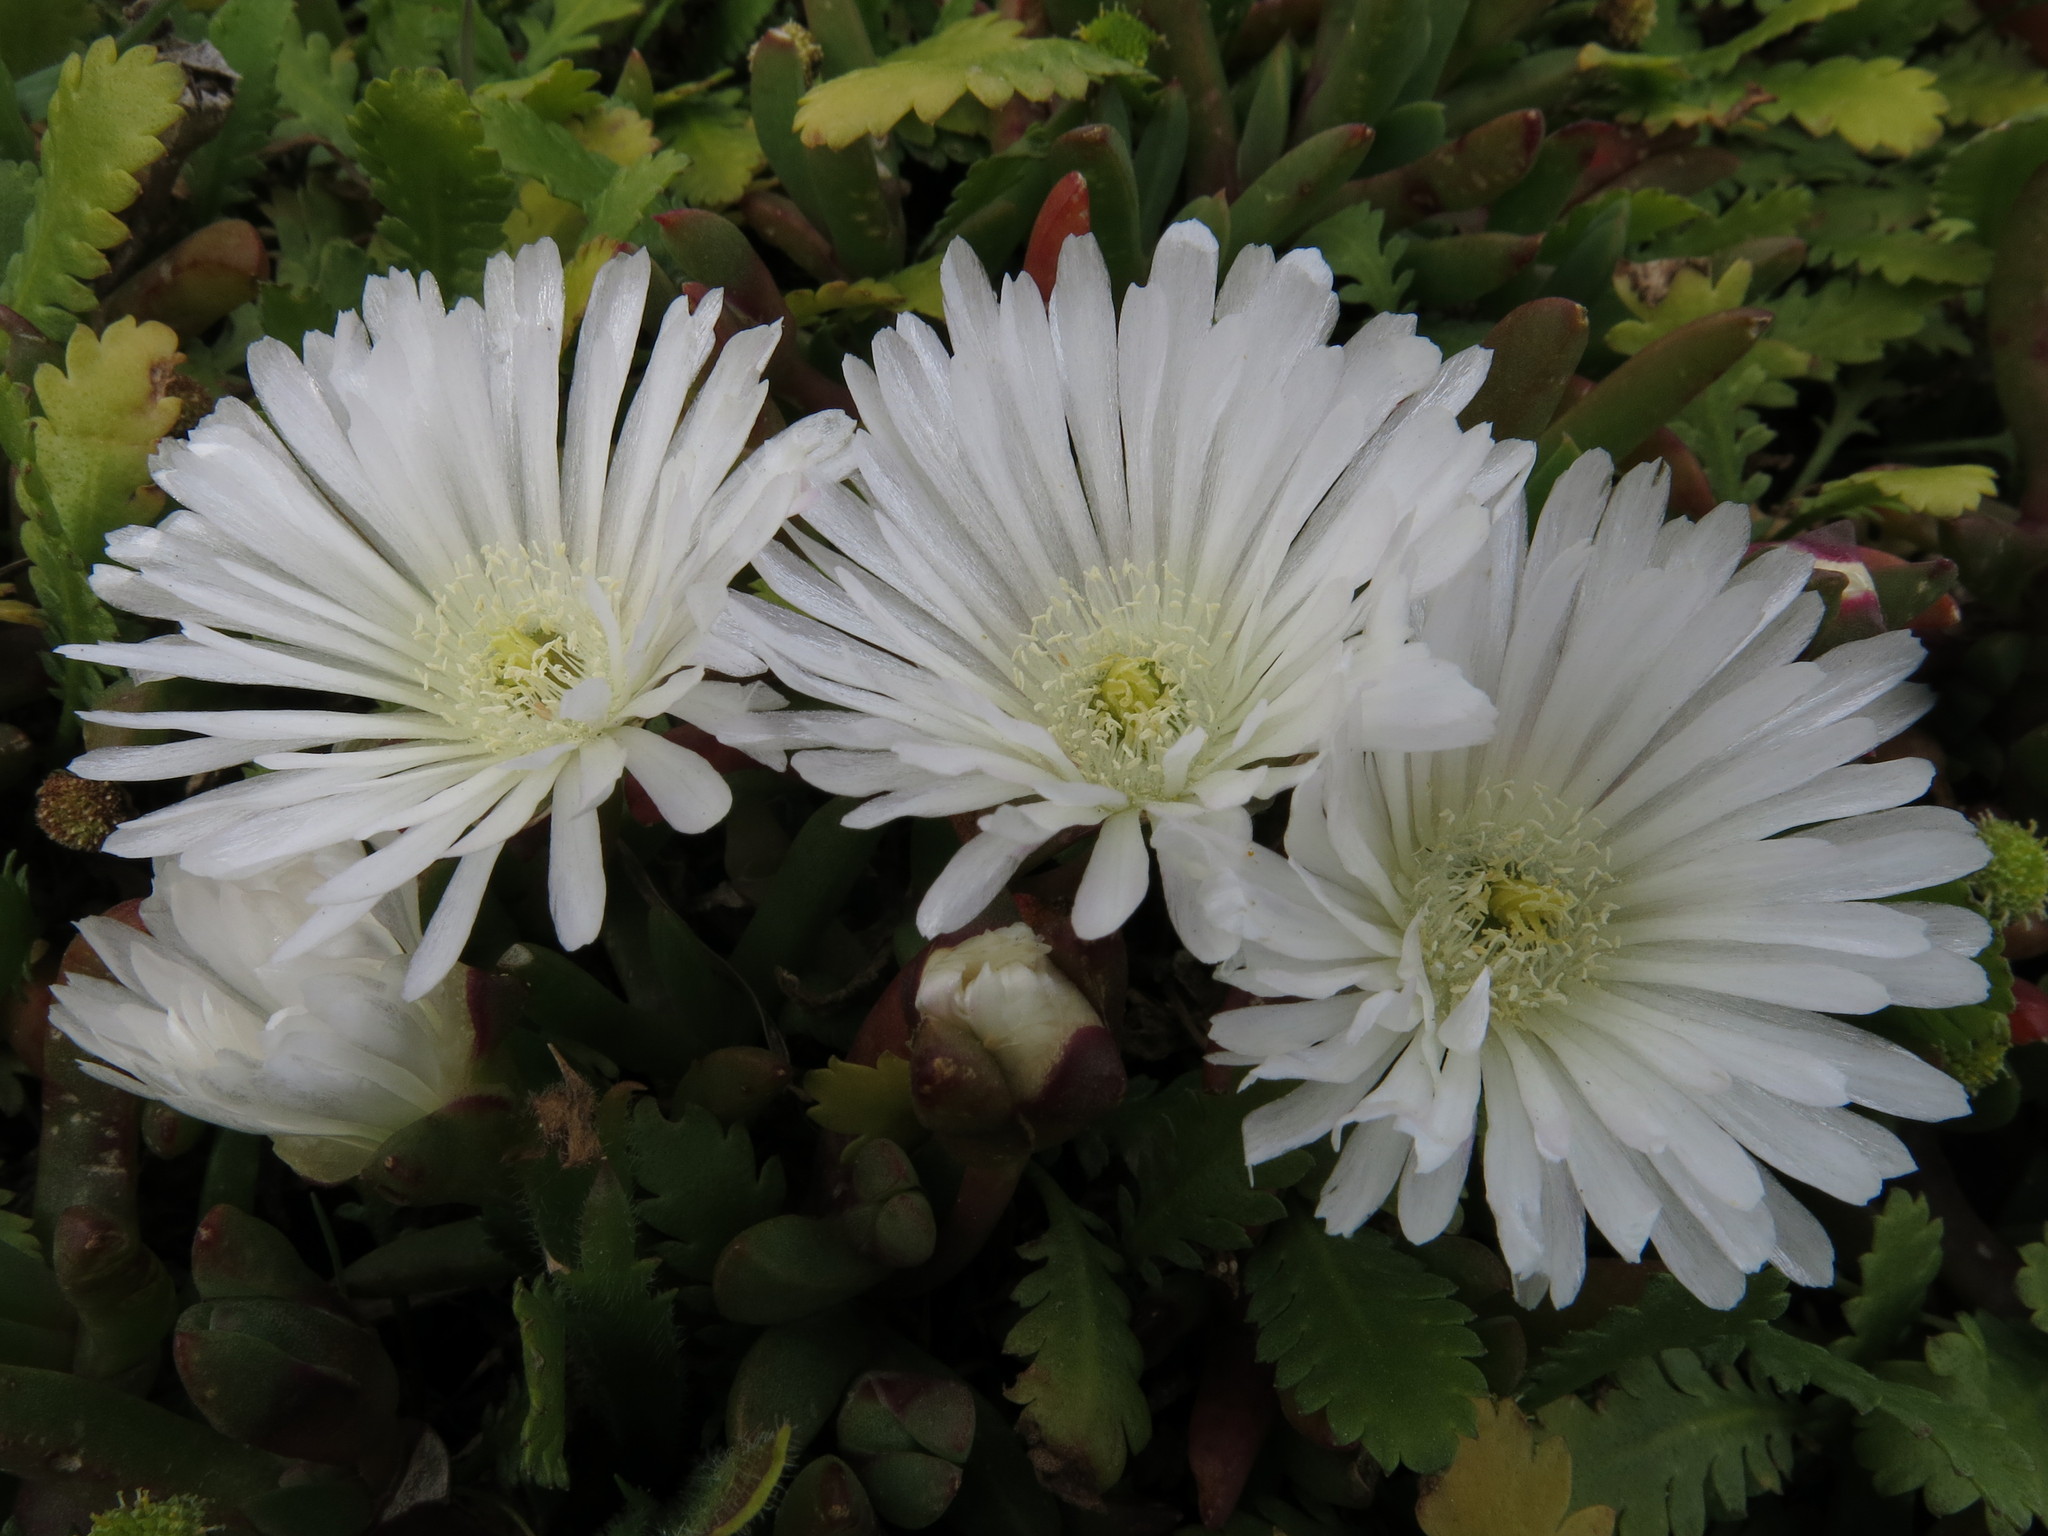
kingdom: Plantae
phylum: Tracheophyta
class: Magnoliopsida
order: Caryophyllales
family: Aizoaceae
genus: Disphyma
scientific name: Disphyma australe
